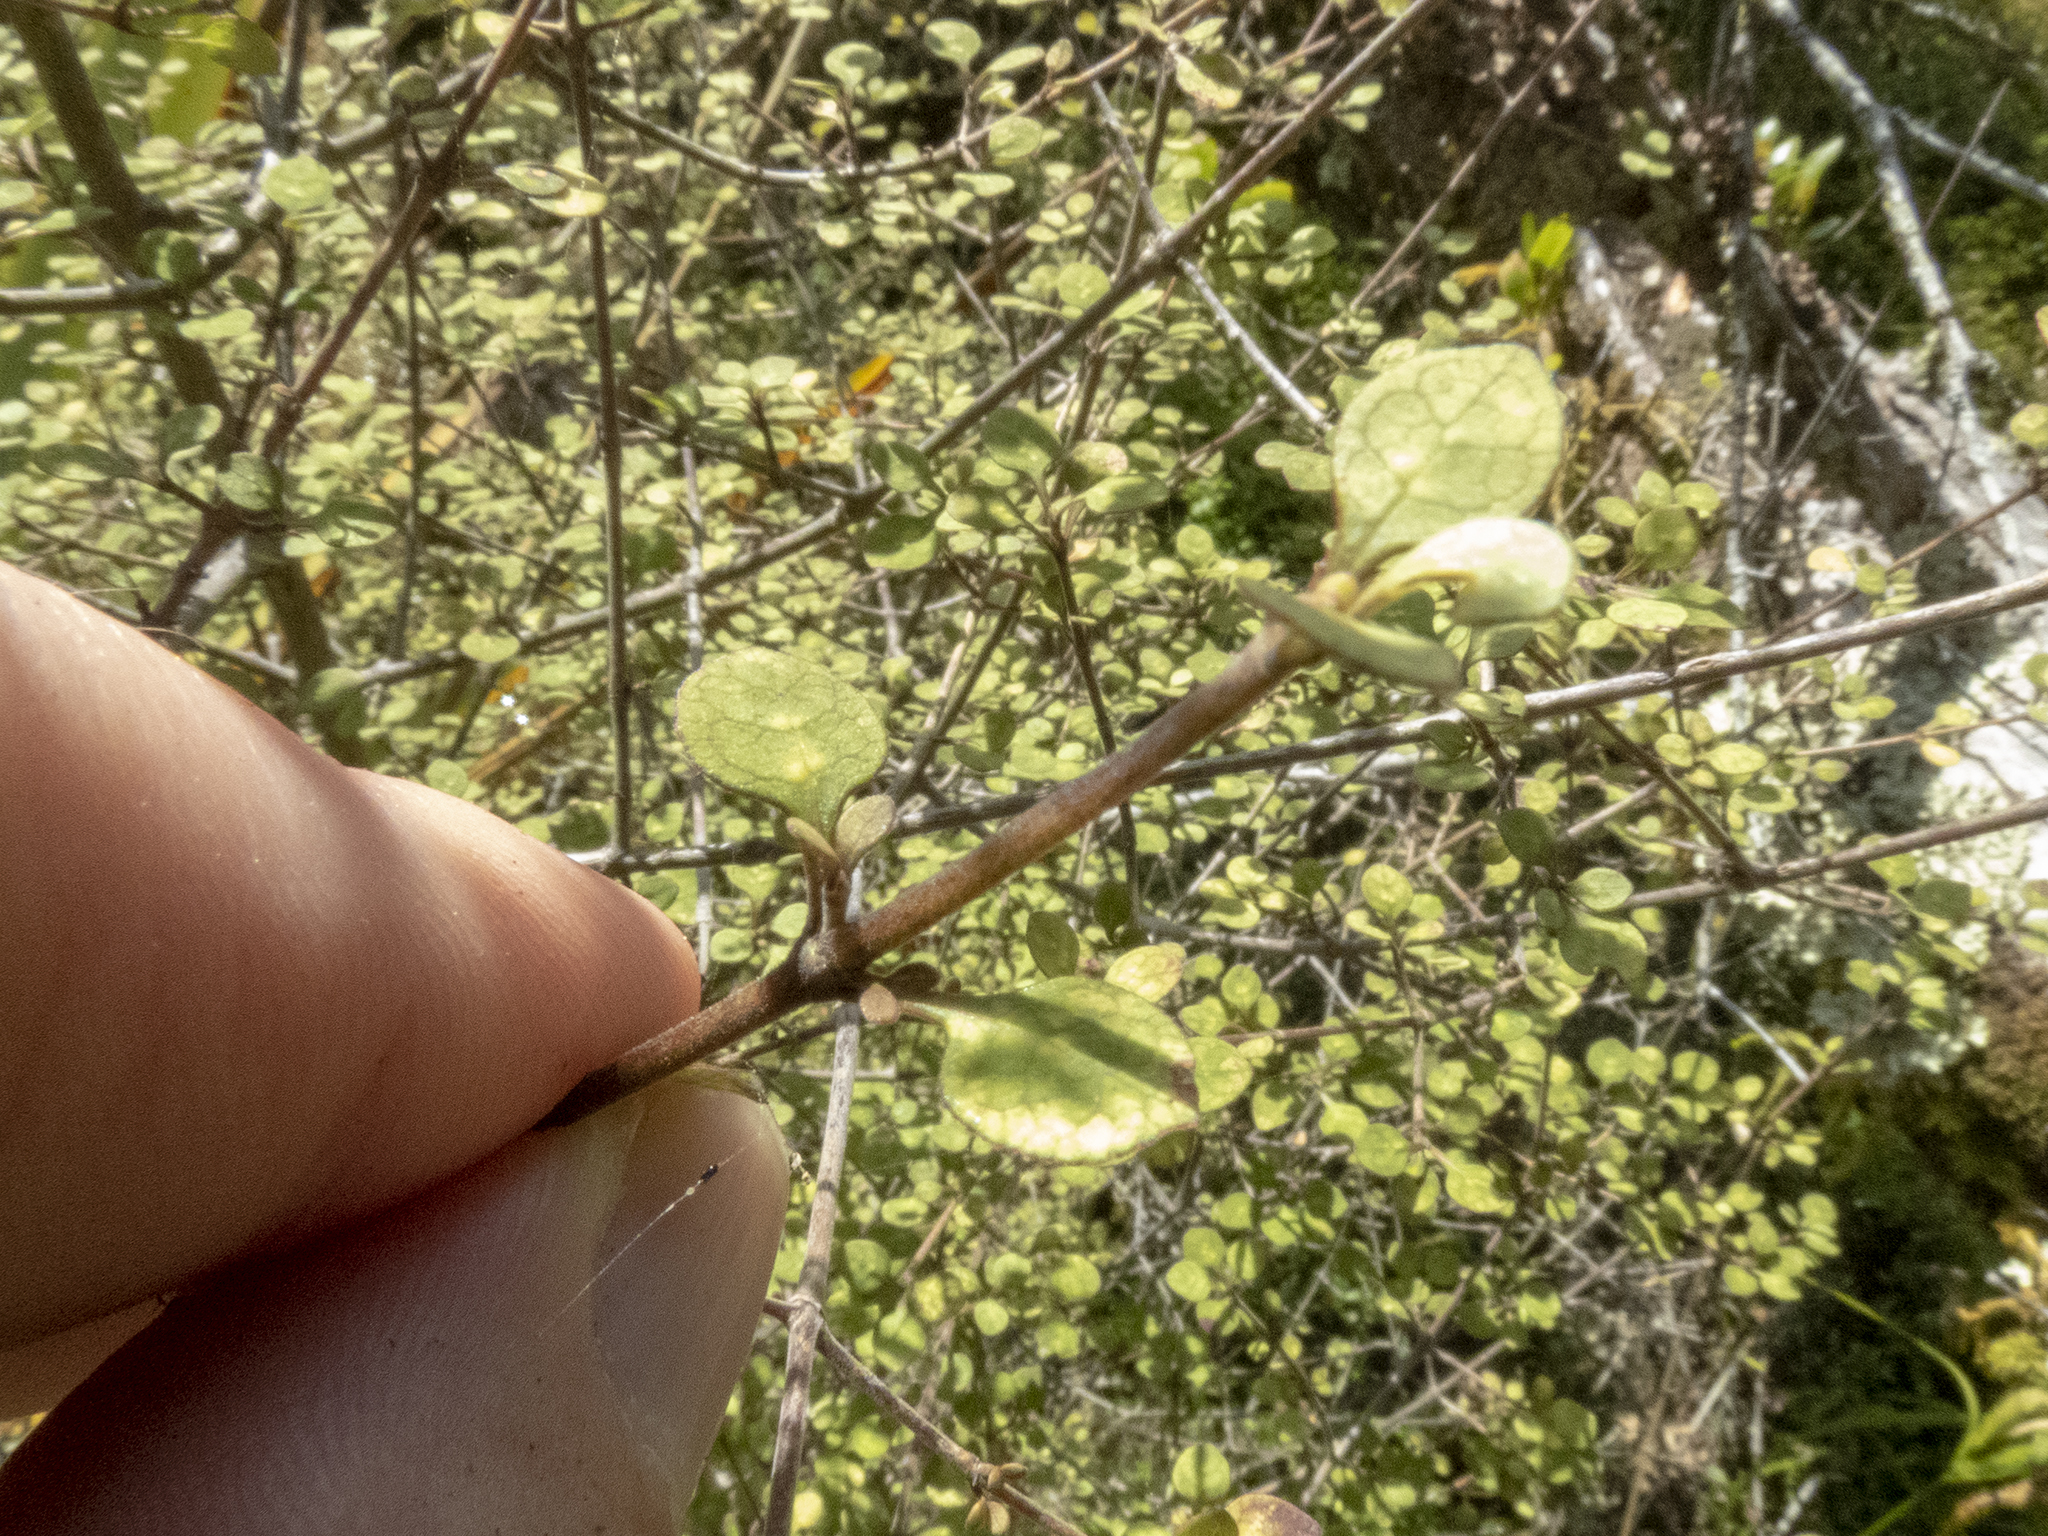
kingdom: Plantae
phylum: Tracheophyta
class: Magnoliopsida
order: Gentianales
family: Rubiaceae
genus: Coprosma
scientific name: Coprosma tenuicaulis
